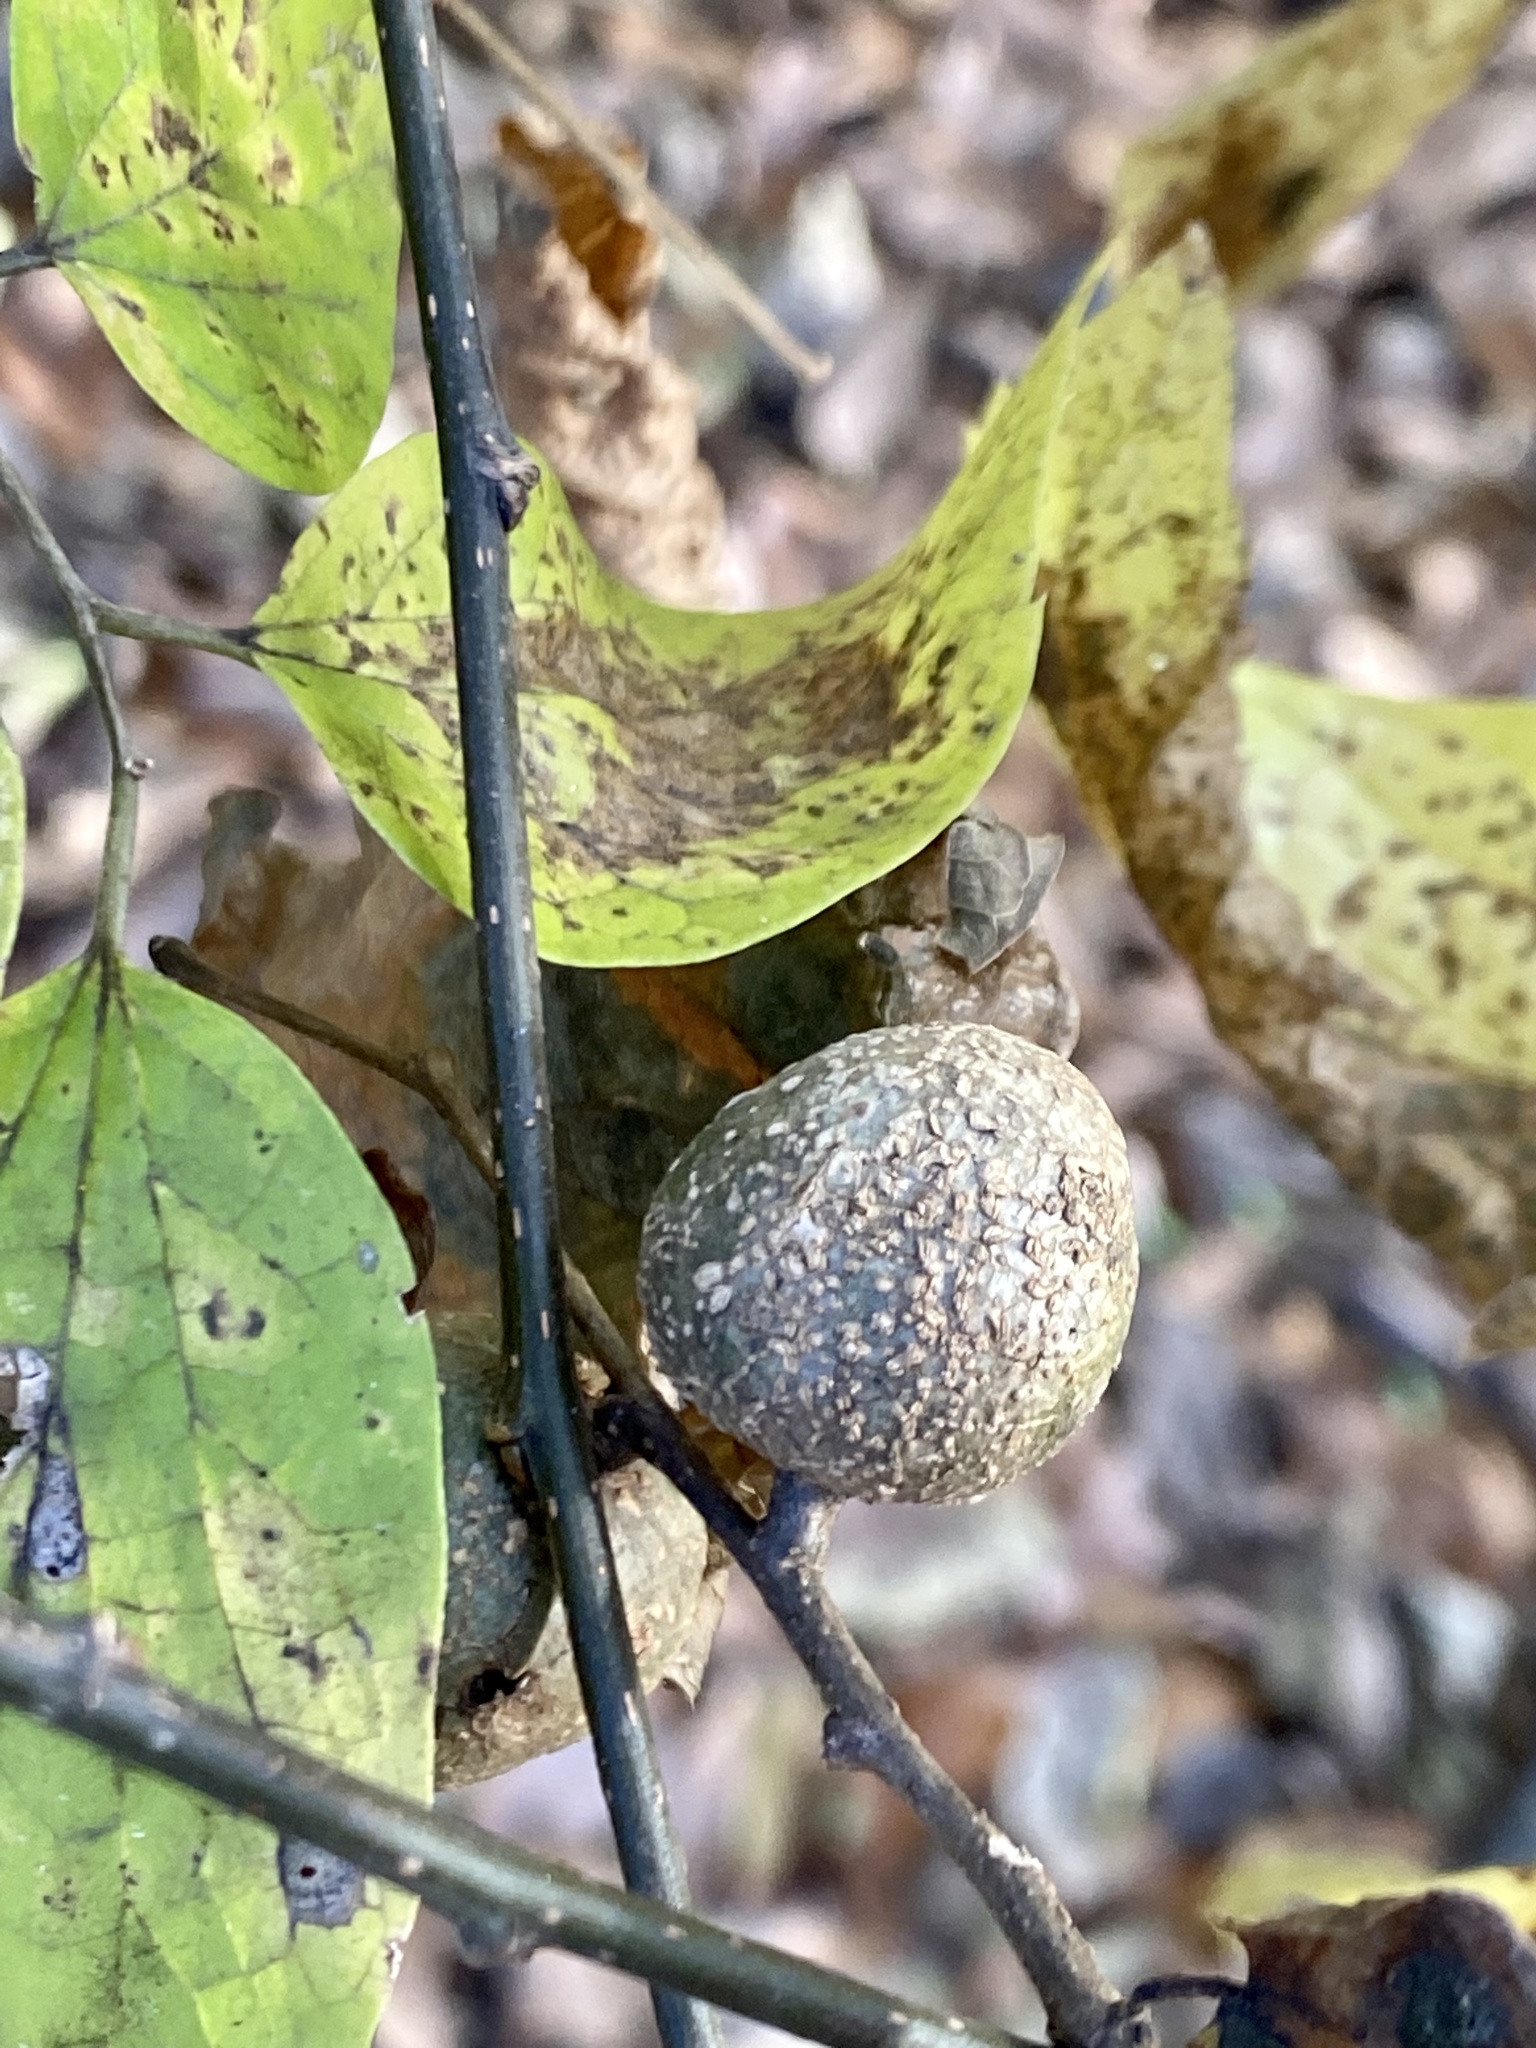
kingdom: Animalia
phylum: Arthropoda
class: Insecta
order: Hemiptera
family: Aphalaridae
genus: Pachypsylla
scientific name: Pachypsylla venusta
